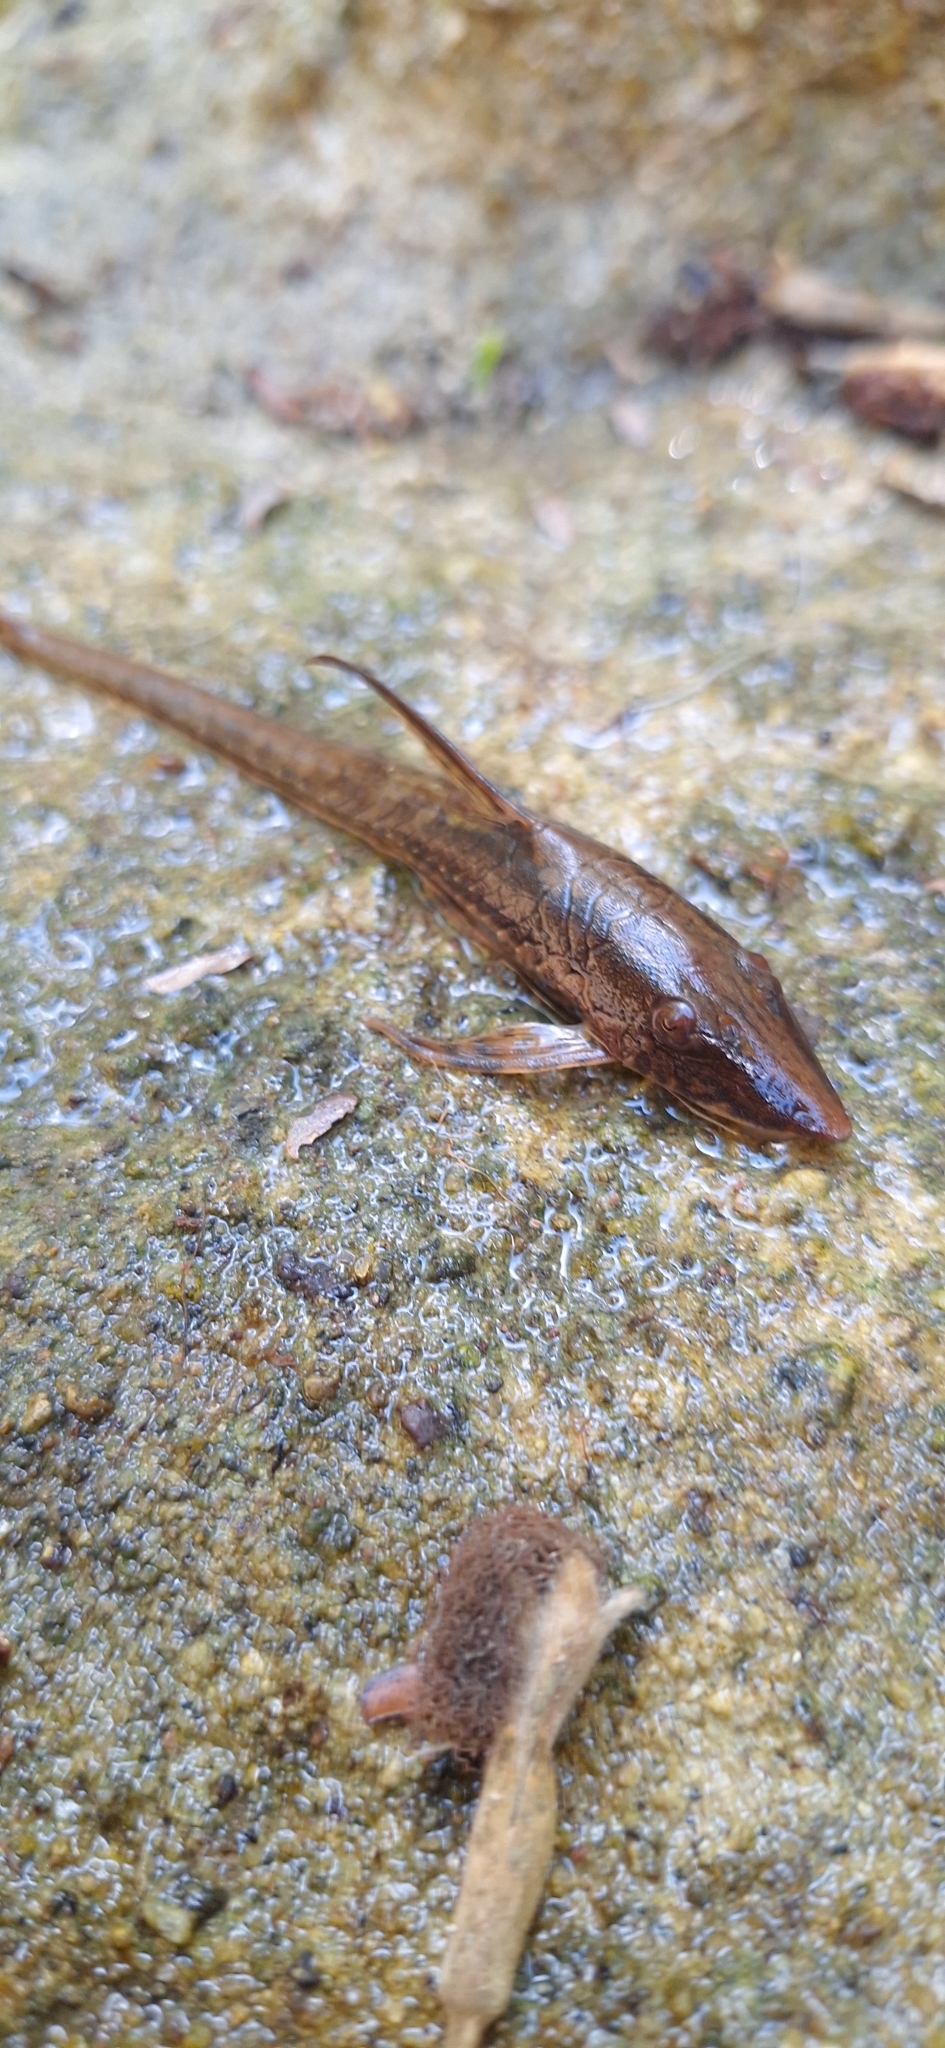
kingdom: Animalia
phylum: Chordata
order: Siluriformes
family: Loricariidae
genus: Sturisomatichthys
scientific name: Sturisomatichthys panamense
